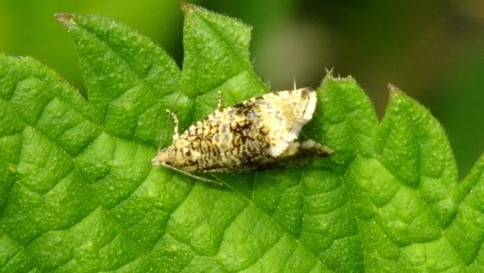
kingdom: Animalia
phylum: Arthropoda
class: Insecta
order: Lepidoptera
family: Tortricidae
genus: Syricoris
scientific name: Syricoris lacunana
